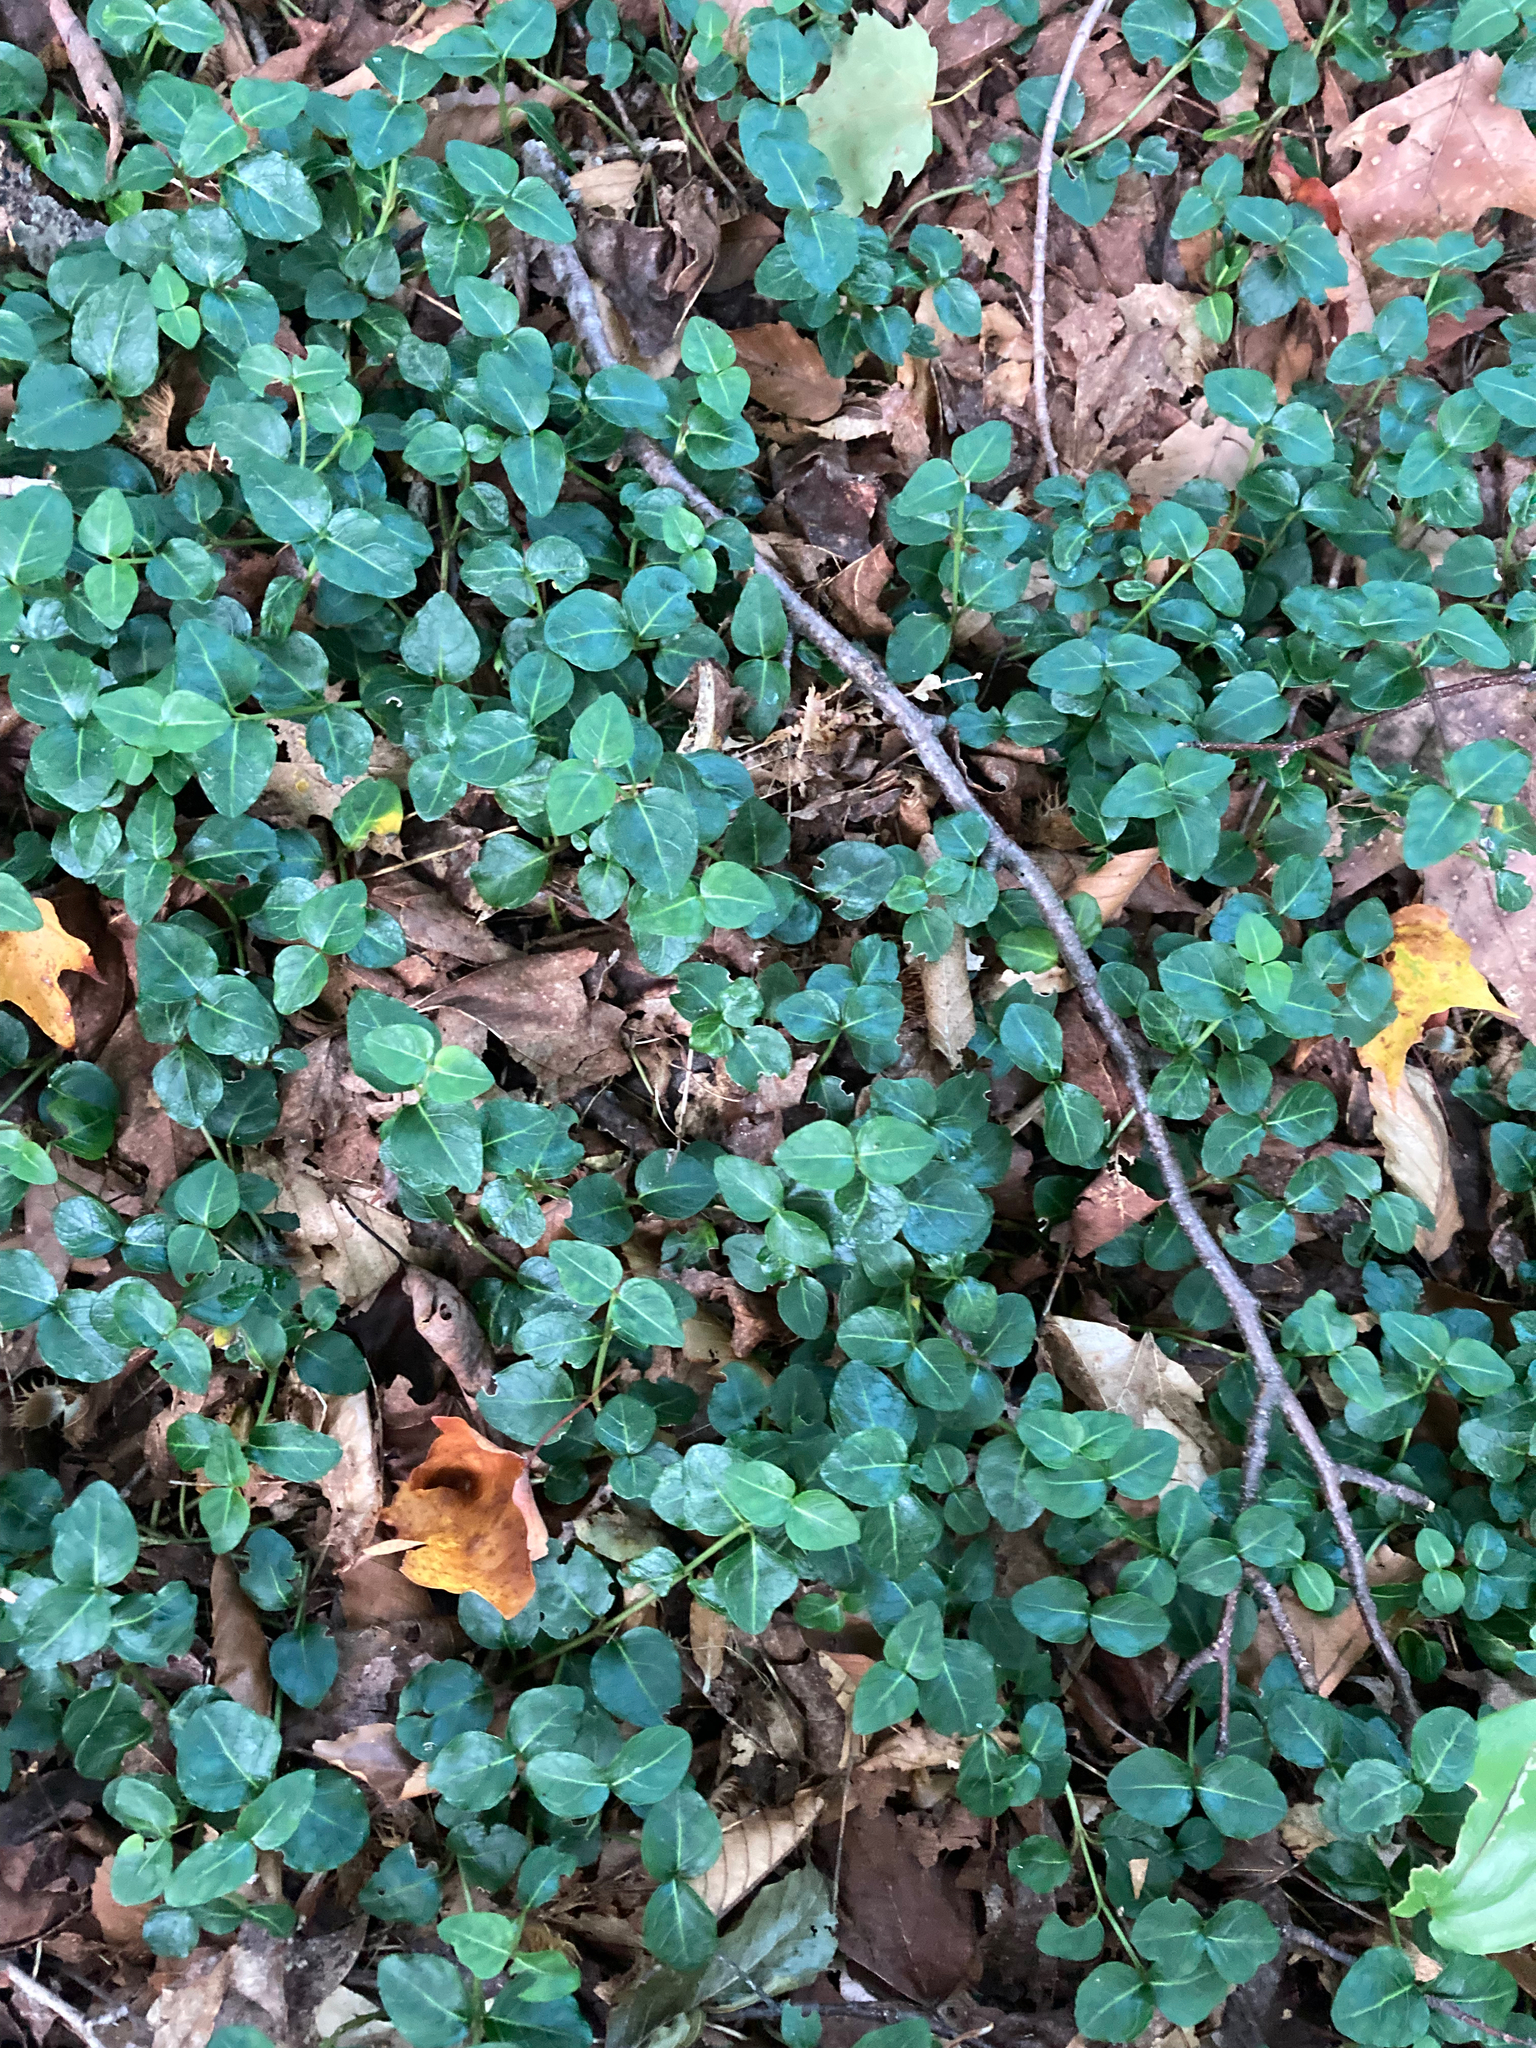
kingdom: Plantae
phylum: Tracheophyta
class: Magnoliopsida
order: Gentianales
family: Rubiaceae
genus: Mitchella
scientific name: Mitchella repens
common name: Partridge-berry
